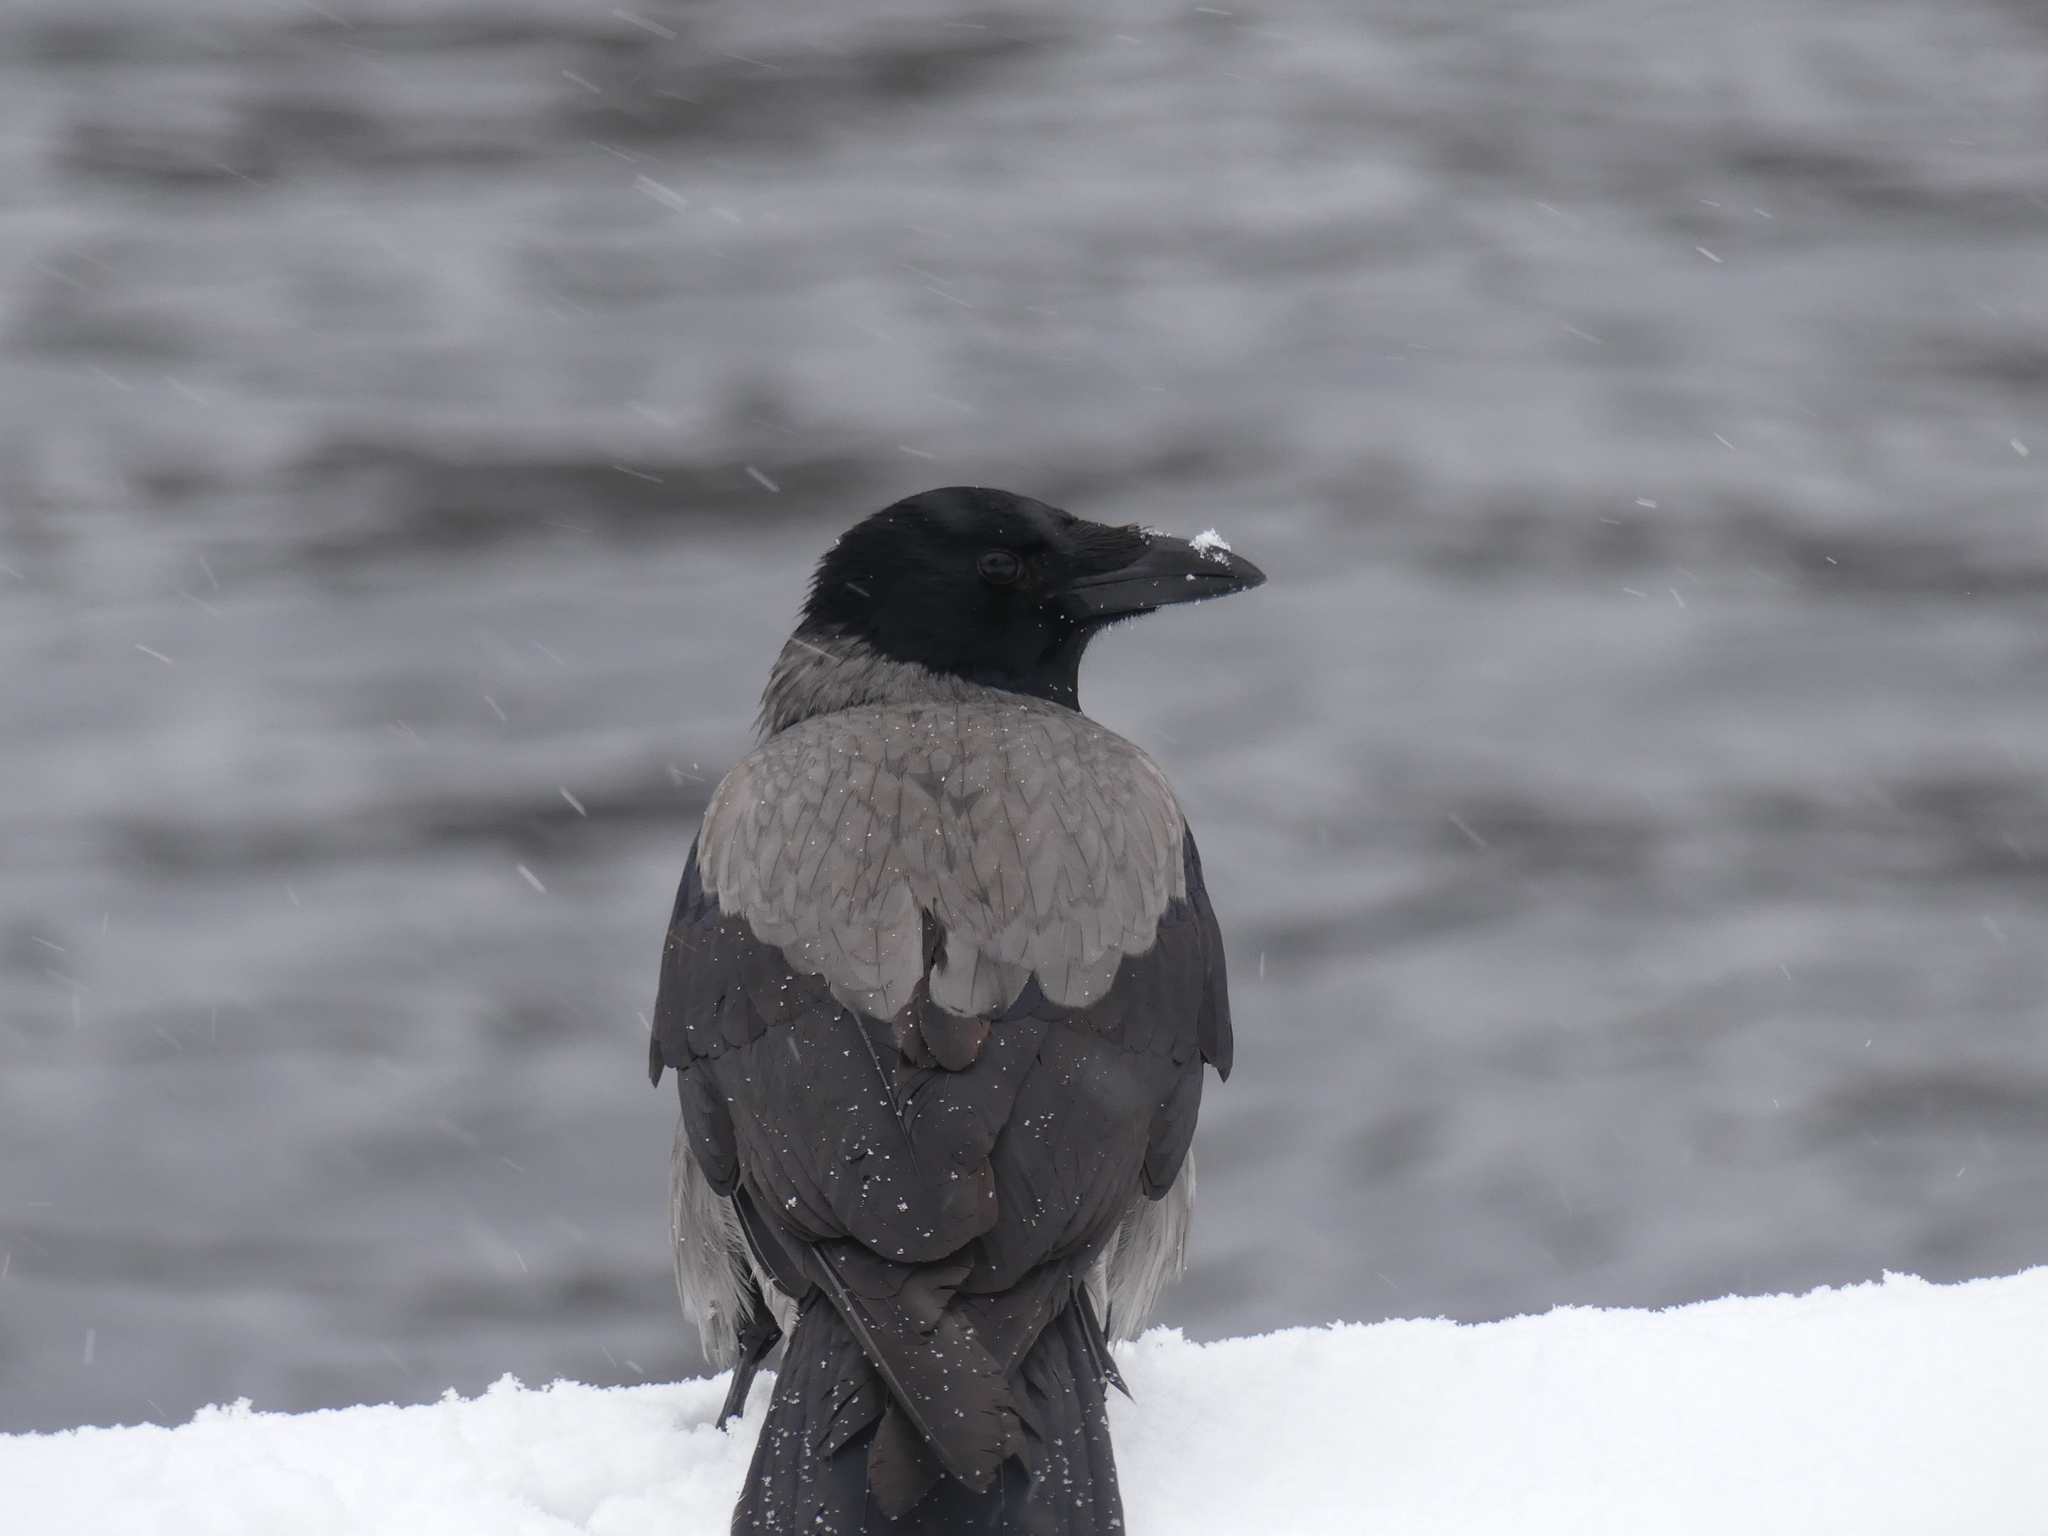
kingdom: Animalia
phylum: Chordata
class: Aves
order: Passeriformes
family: Corvidae
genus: Corvus
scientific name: Corvus cornix
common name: Hooded crow
